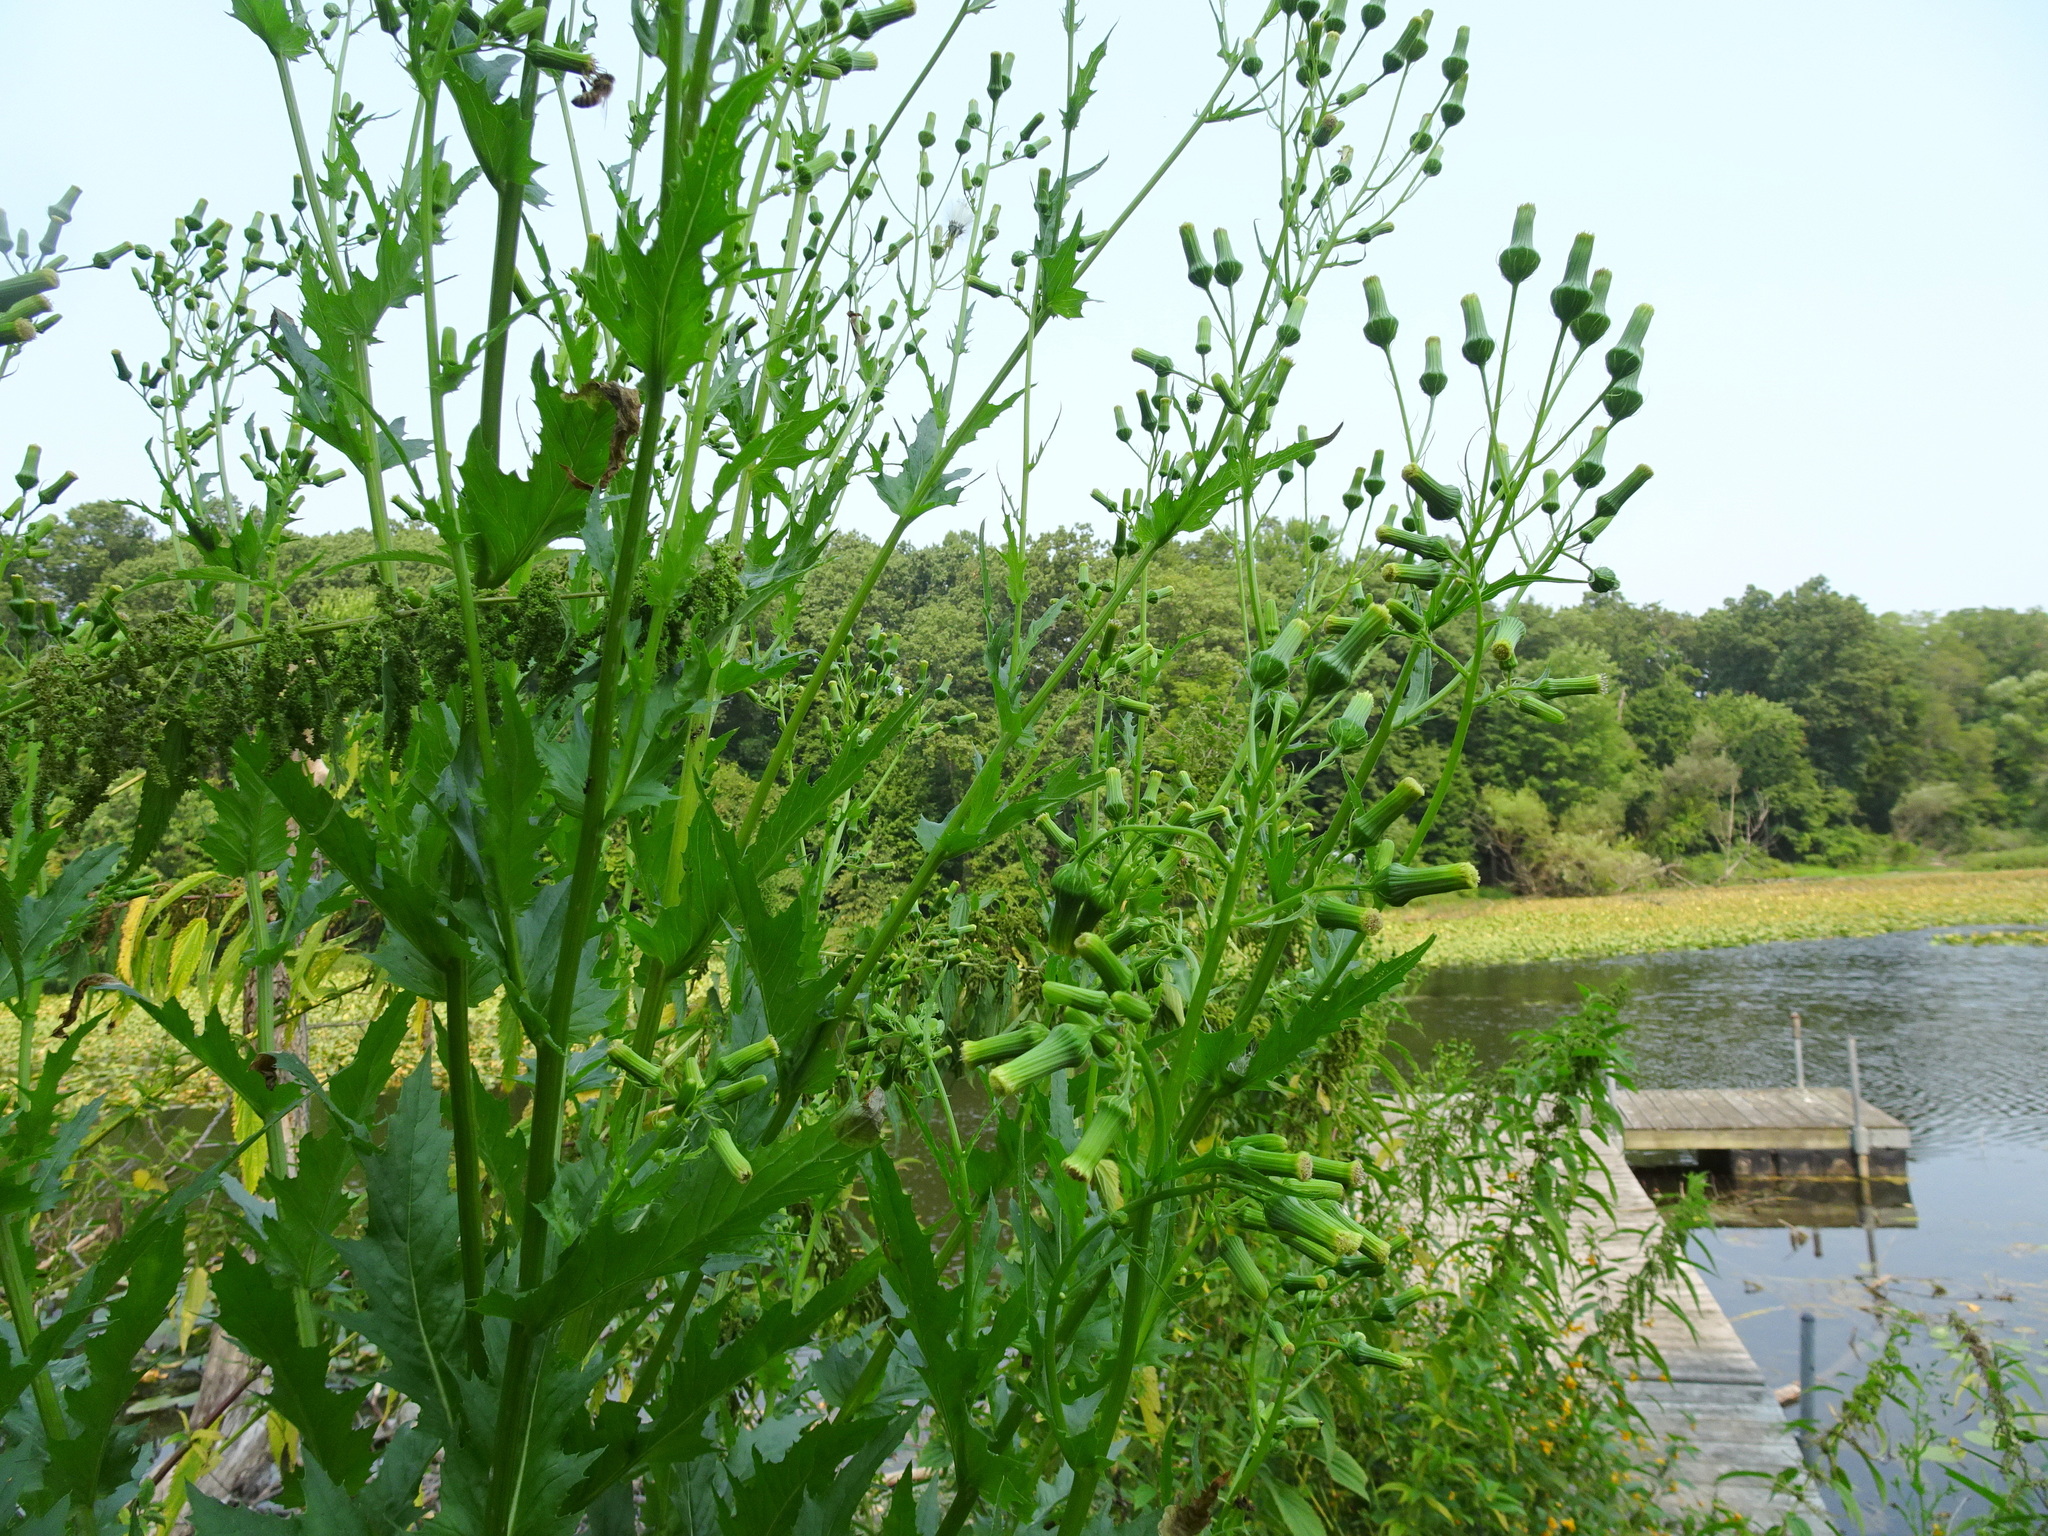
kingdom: Plantae
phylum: Tracheophyta
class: Magnoliopsida
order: Asterales
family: Asteraceae
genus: Erechtites
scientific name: Erechtites hieraciifolius
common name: American burnweed
